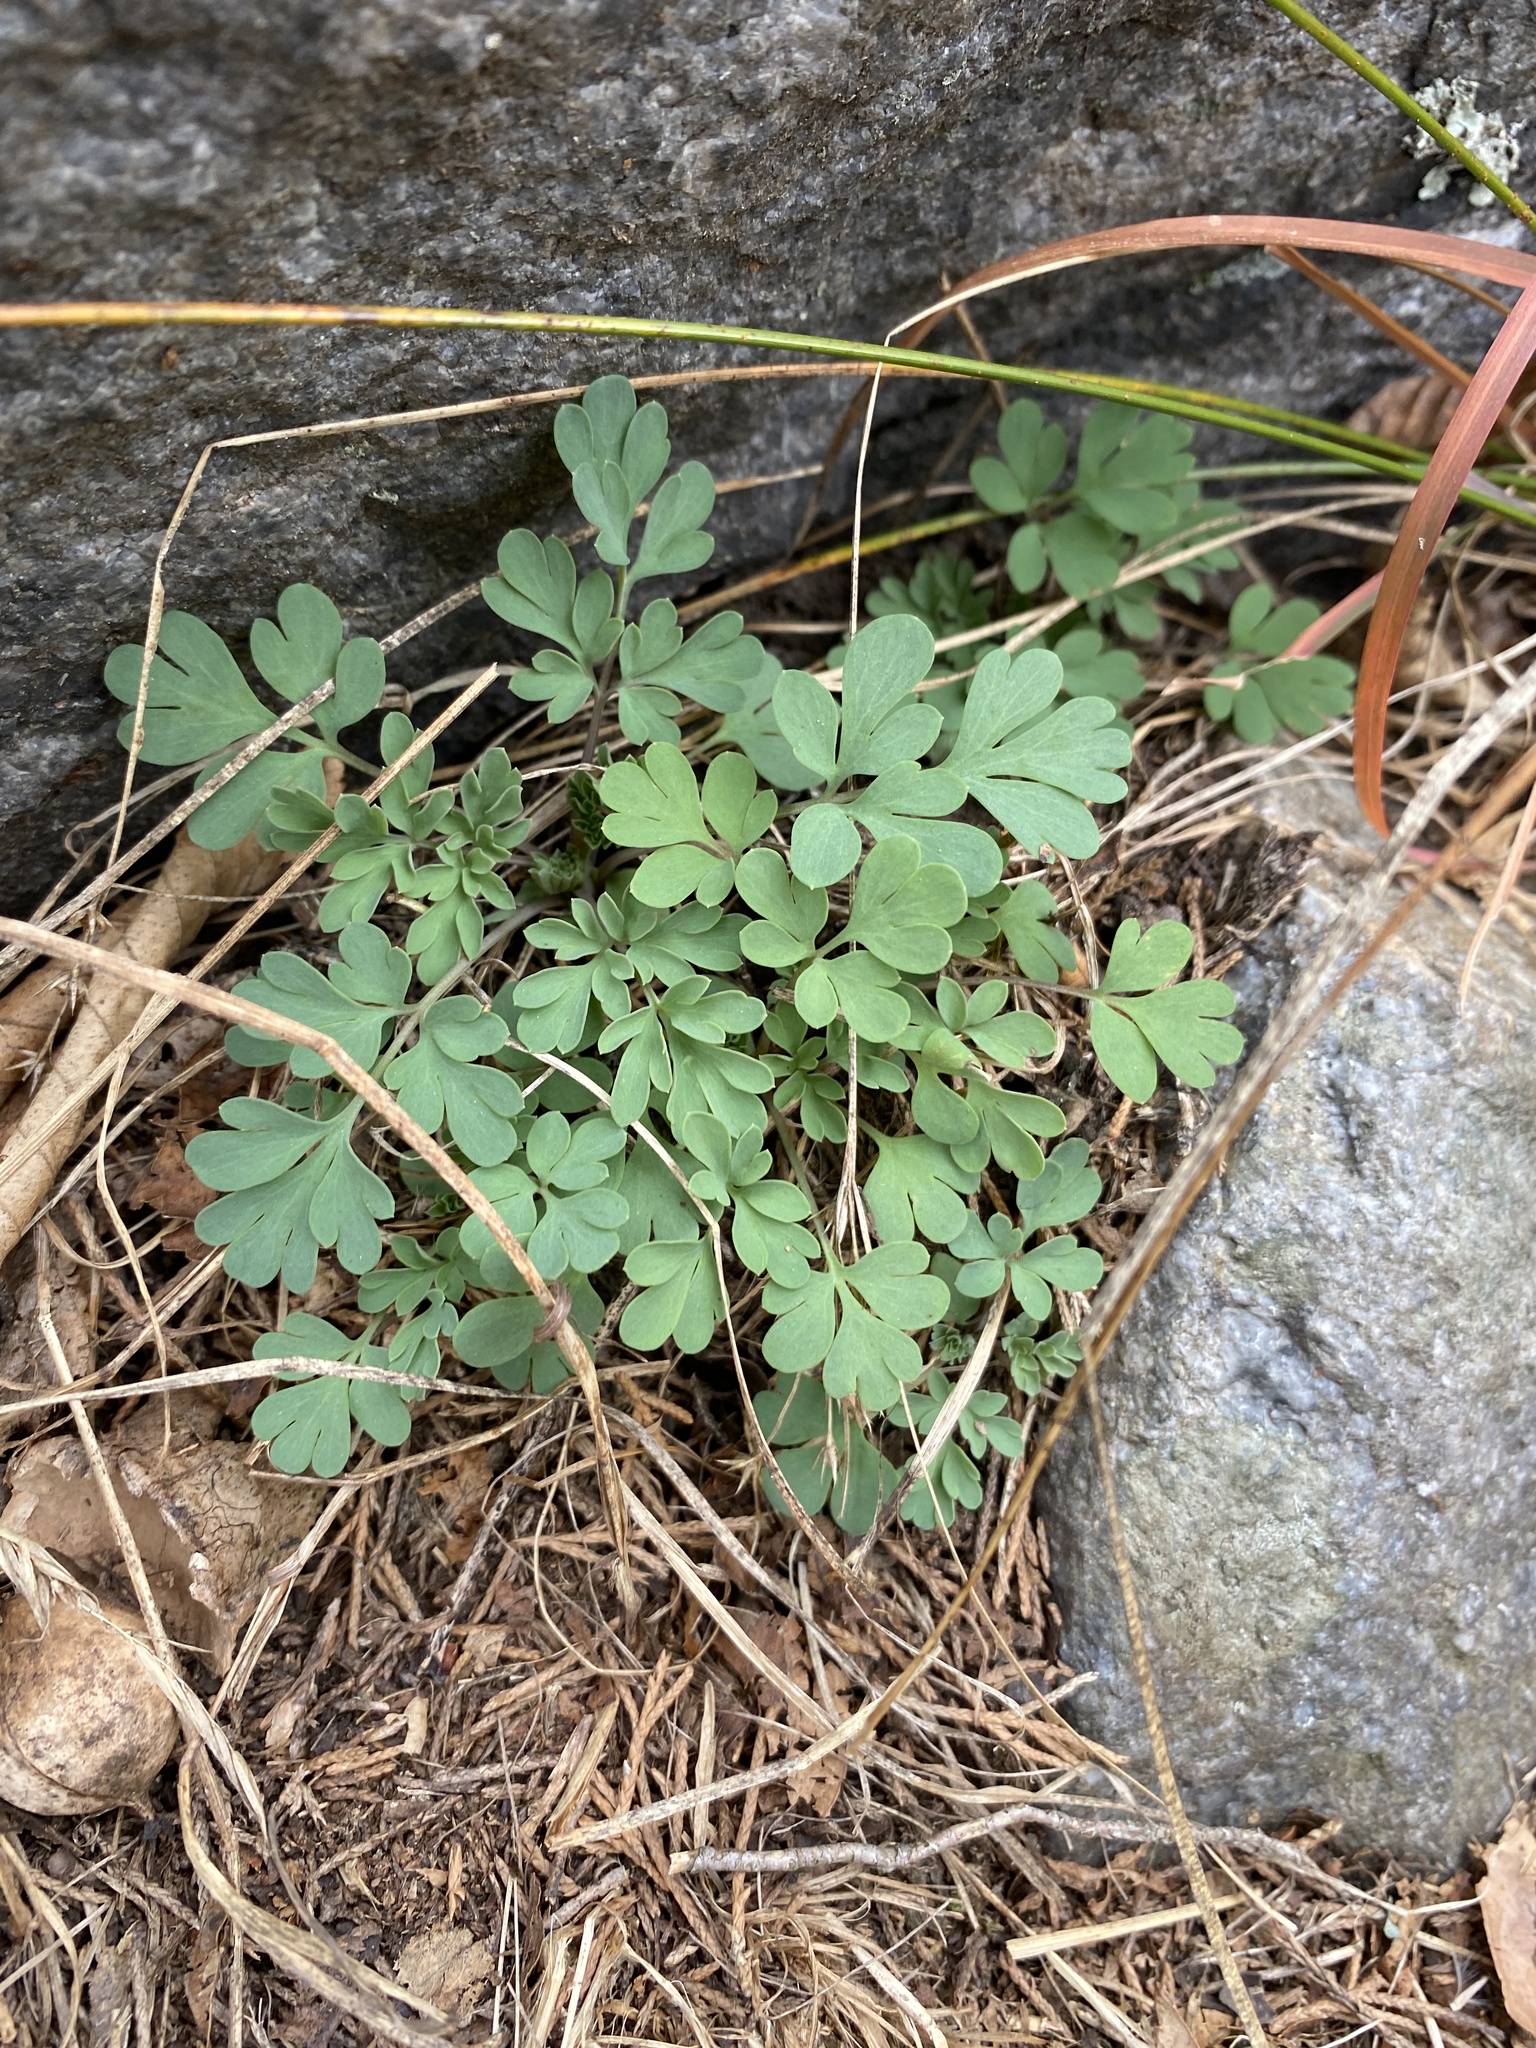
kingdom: Plantae
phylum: Tracheophyta
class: Magnoliopsida
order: Ranunculales
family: Papaveraceae
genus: Capnoides
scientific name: Capnoides sempervirens
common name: Rock harlequin
